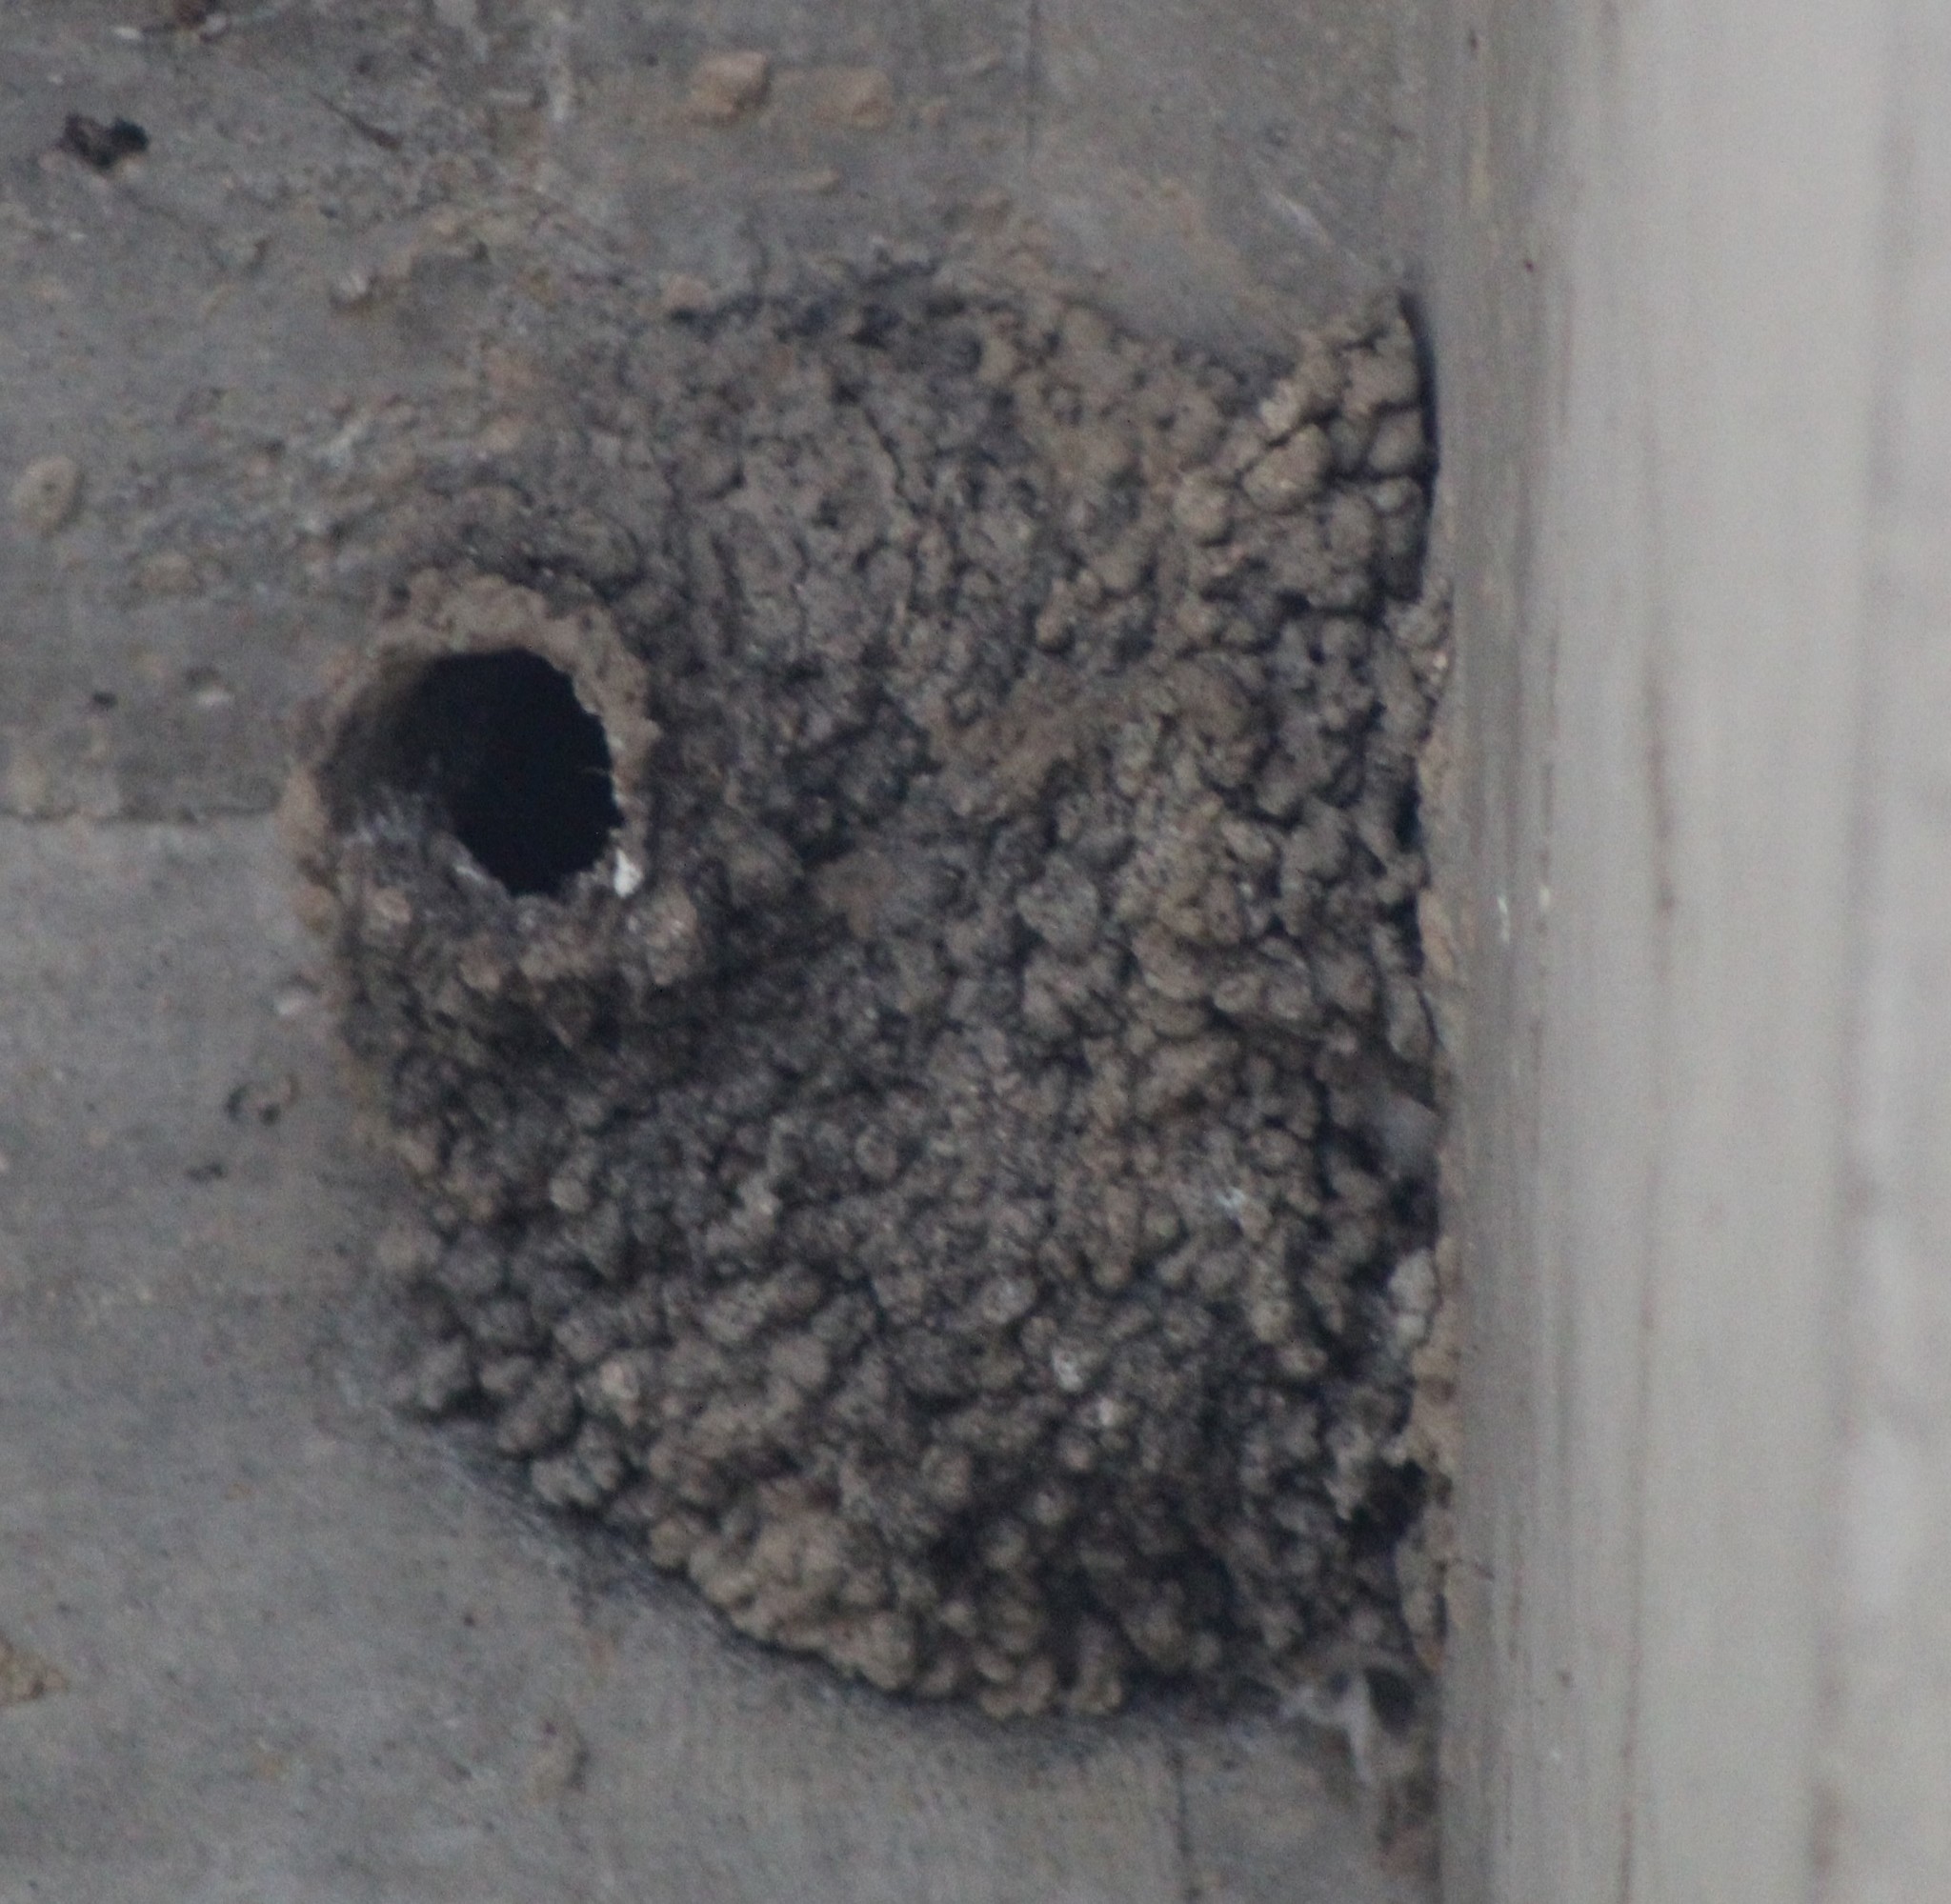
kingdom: Animalia
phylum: Chordata
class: Aves
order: Passeriformes
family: Hirundinidae
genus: Petrochelidon
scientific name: Petrochelidon pyrrhonota
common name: American cliff swallow
